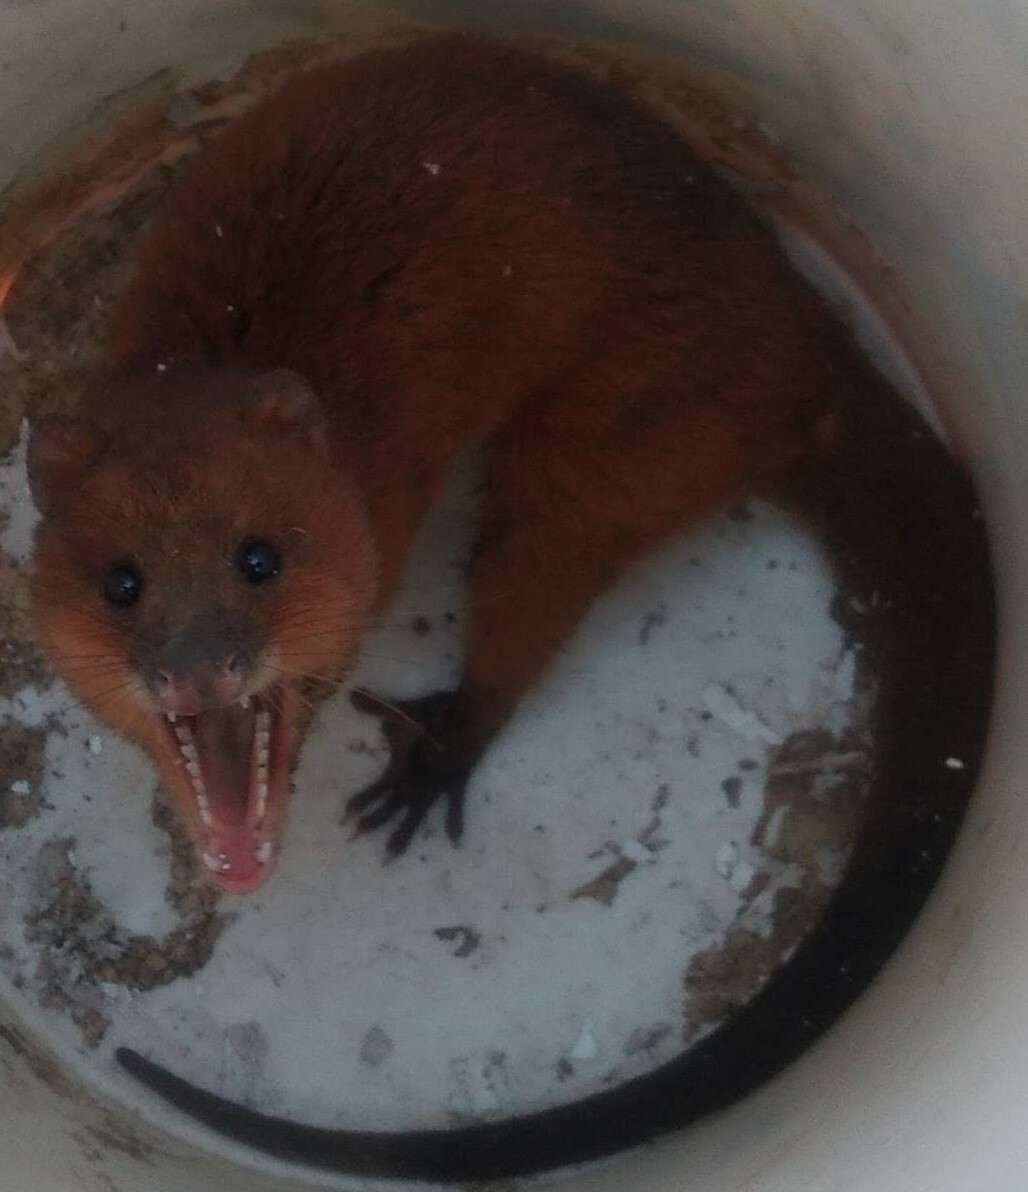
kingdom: Animalia
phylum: Chordata
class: Mammalia
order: Didelphimorphia
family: Didelphidae
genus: Lutreolina
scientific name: Lutreolina crassicaudata
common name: Lutrine opossum
